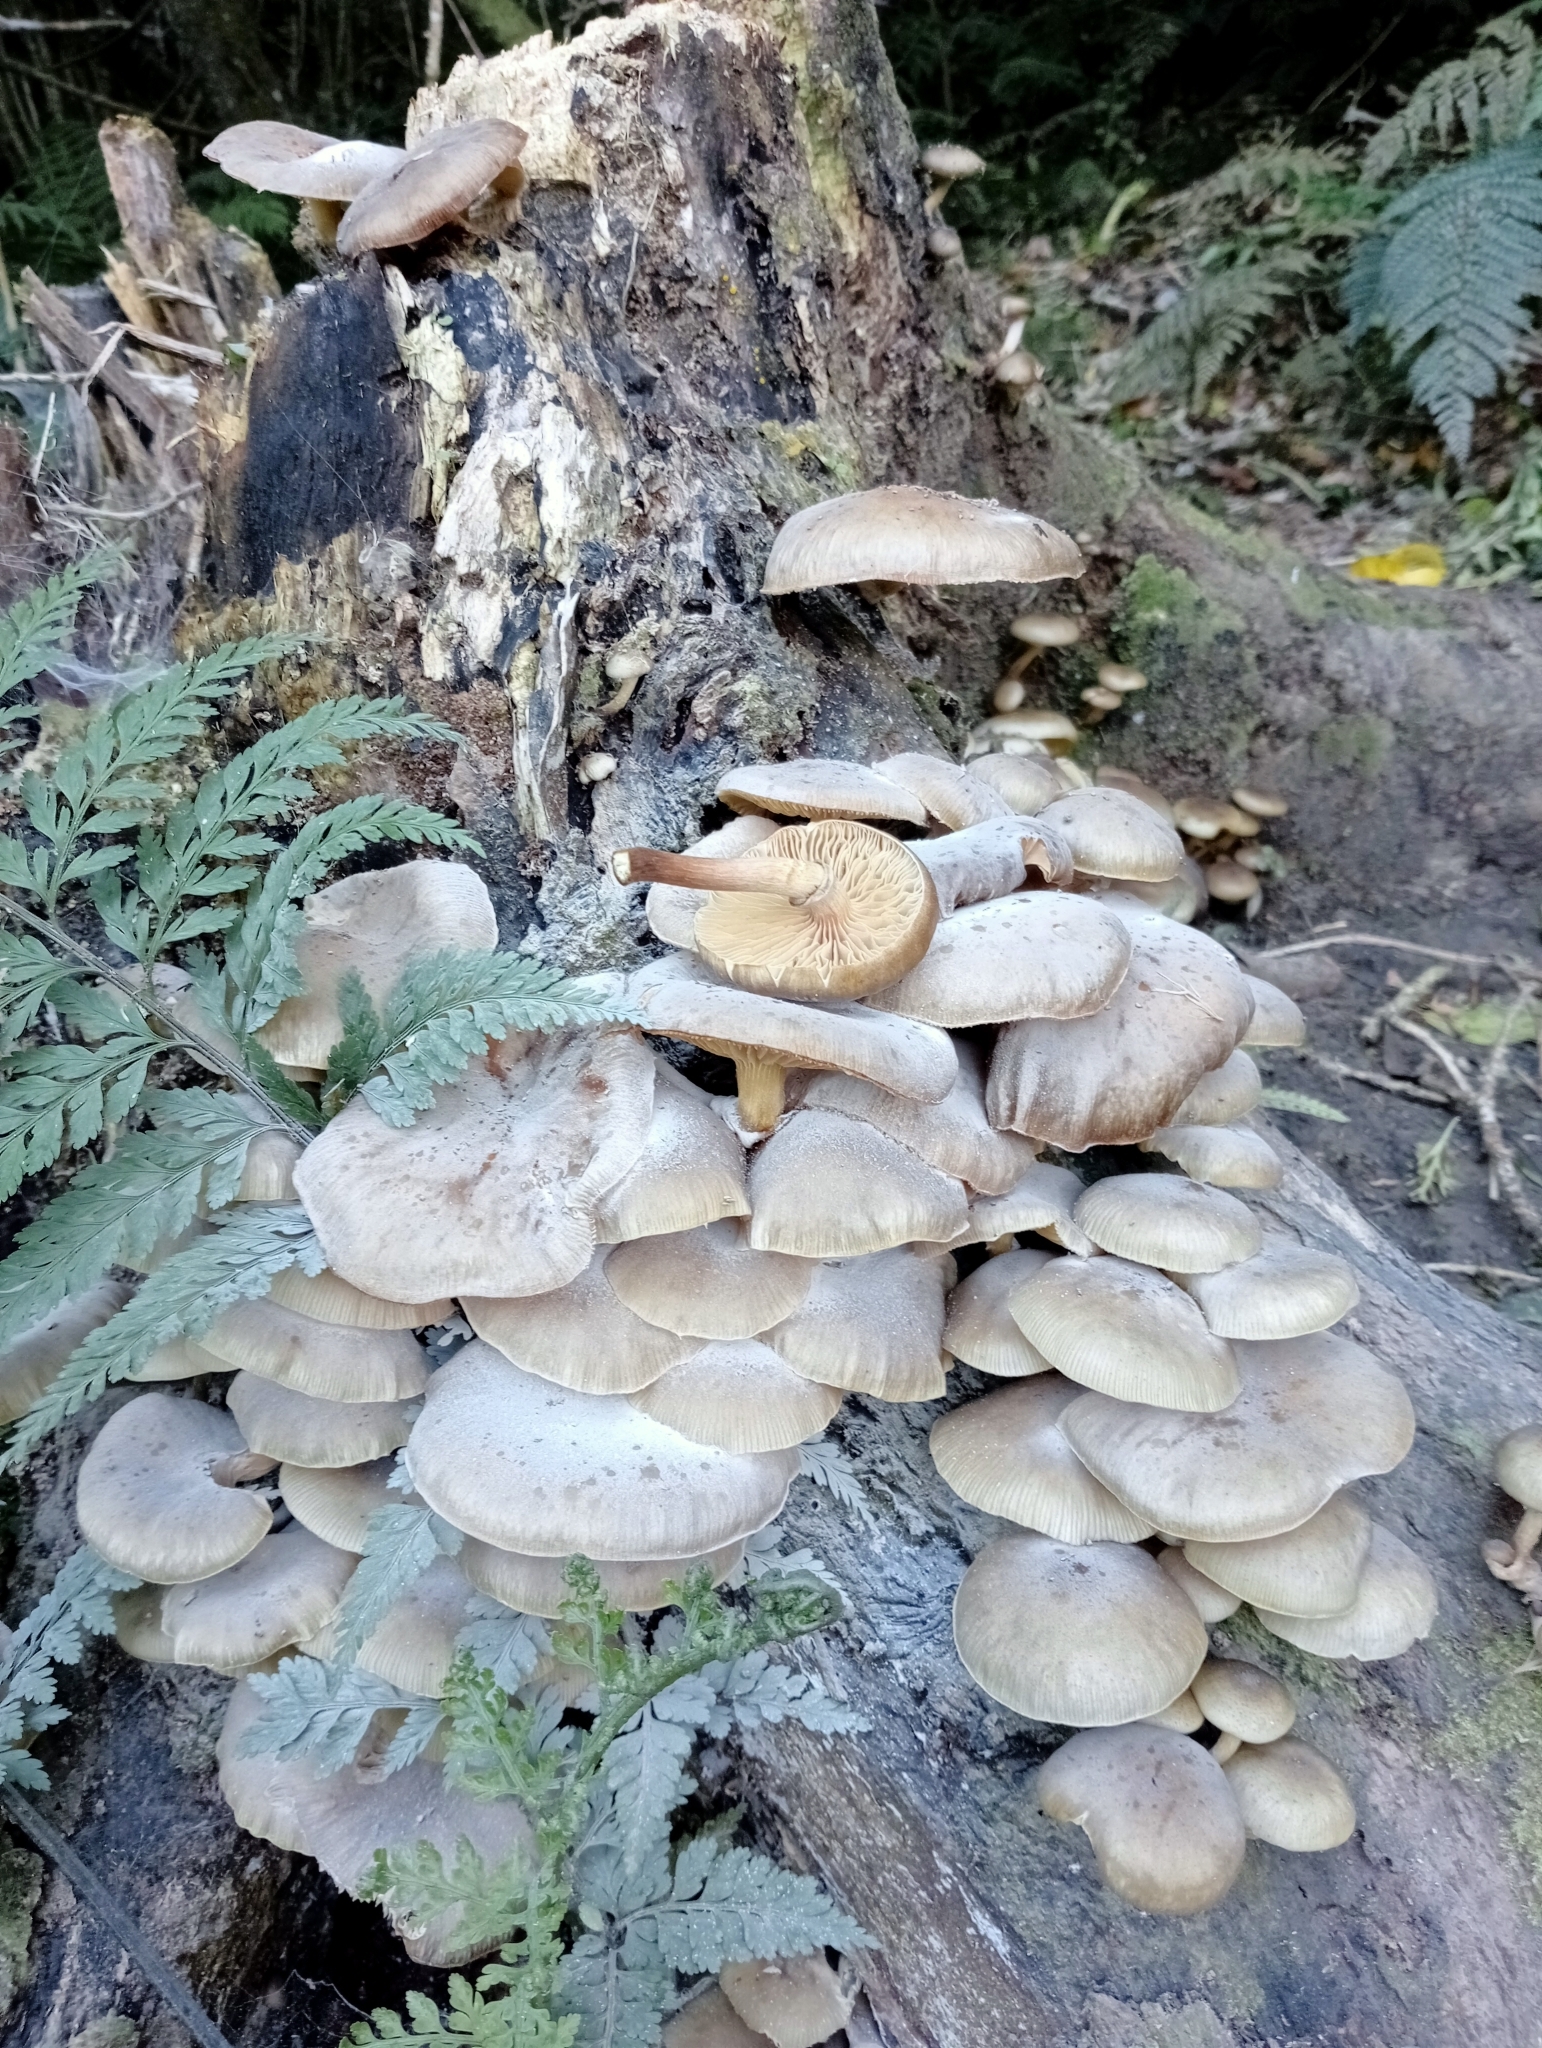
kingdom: Fungi
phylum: Basidiomycota
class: Agaricomycetes
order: Agaricales
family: Physalacriaceae
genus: Armillaria
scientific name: Armillaria novae-zelandiae
